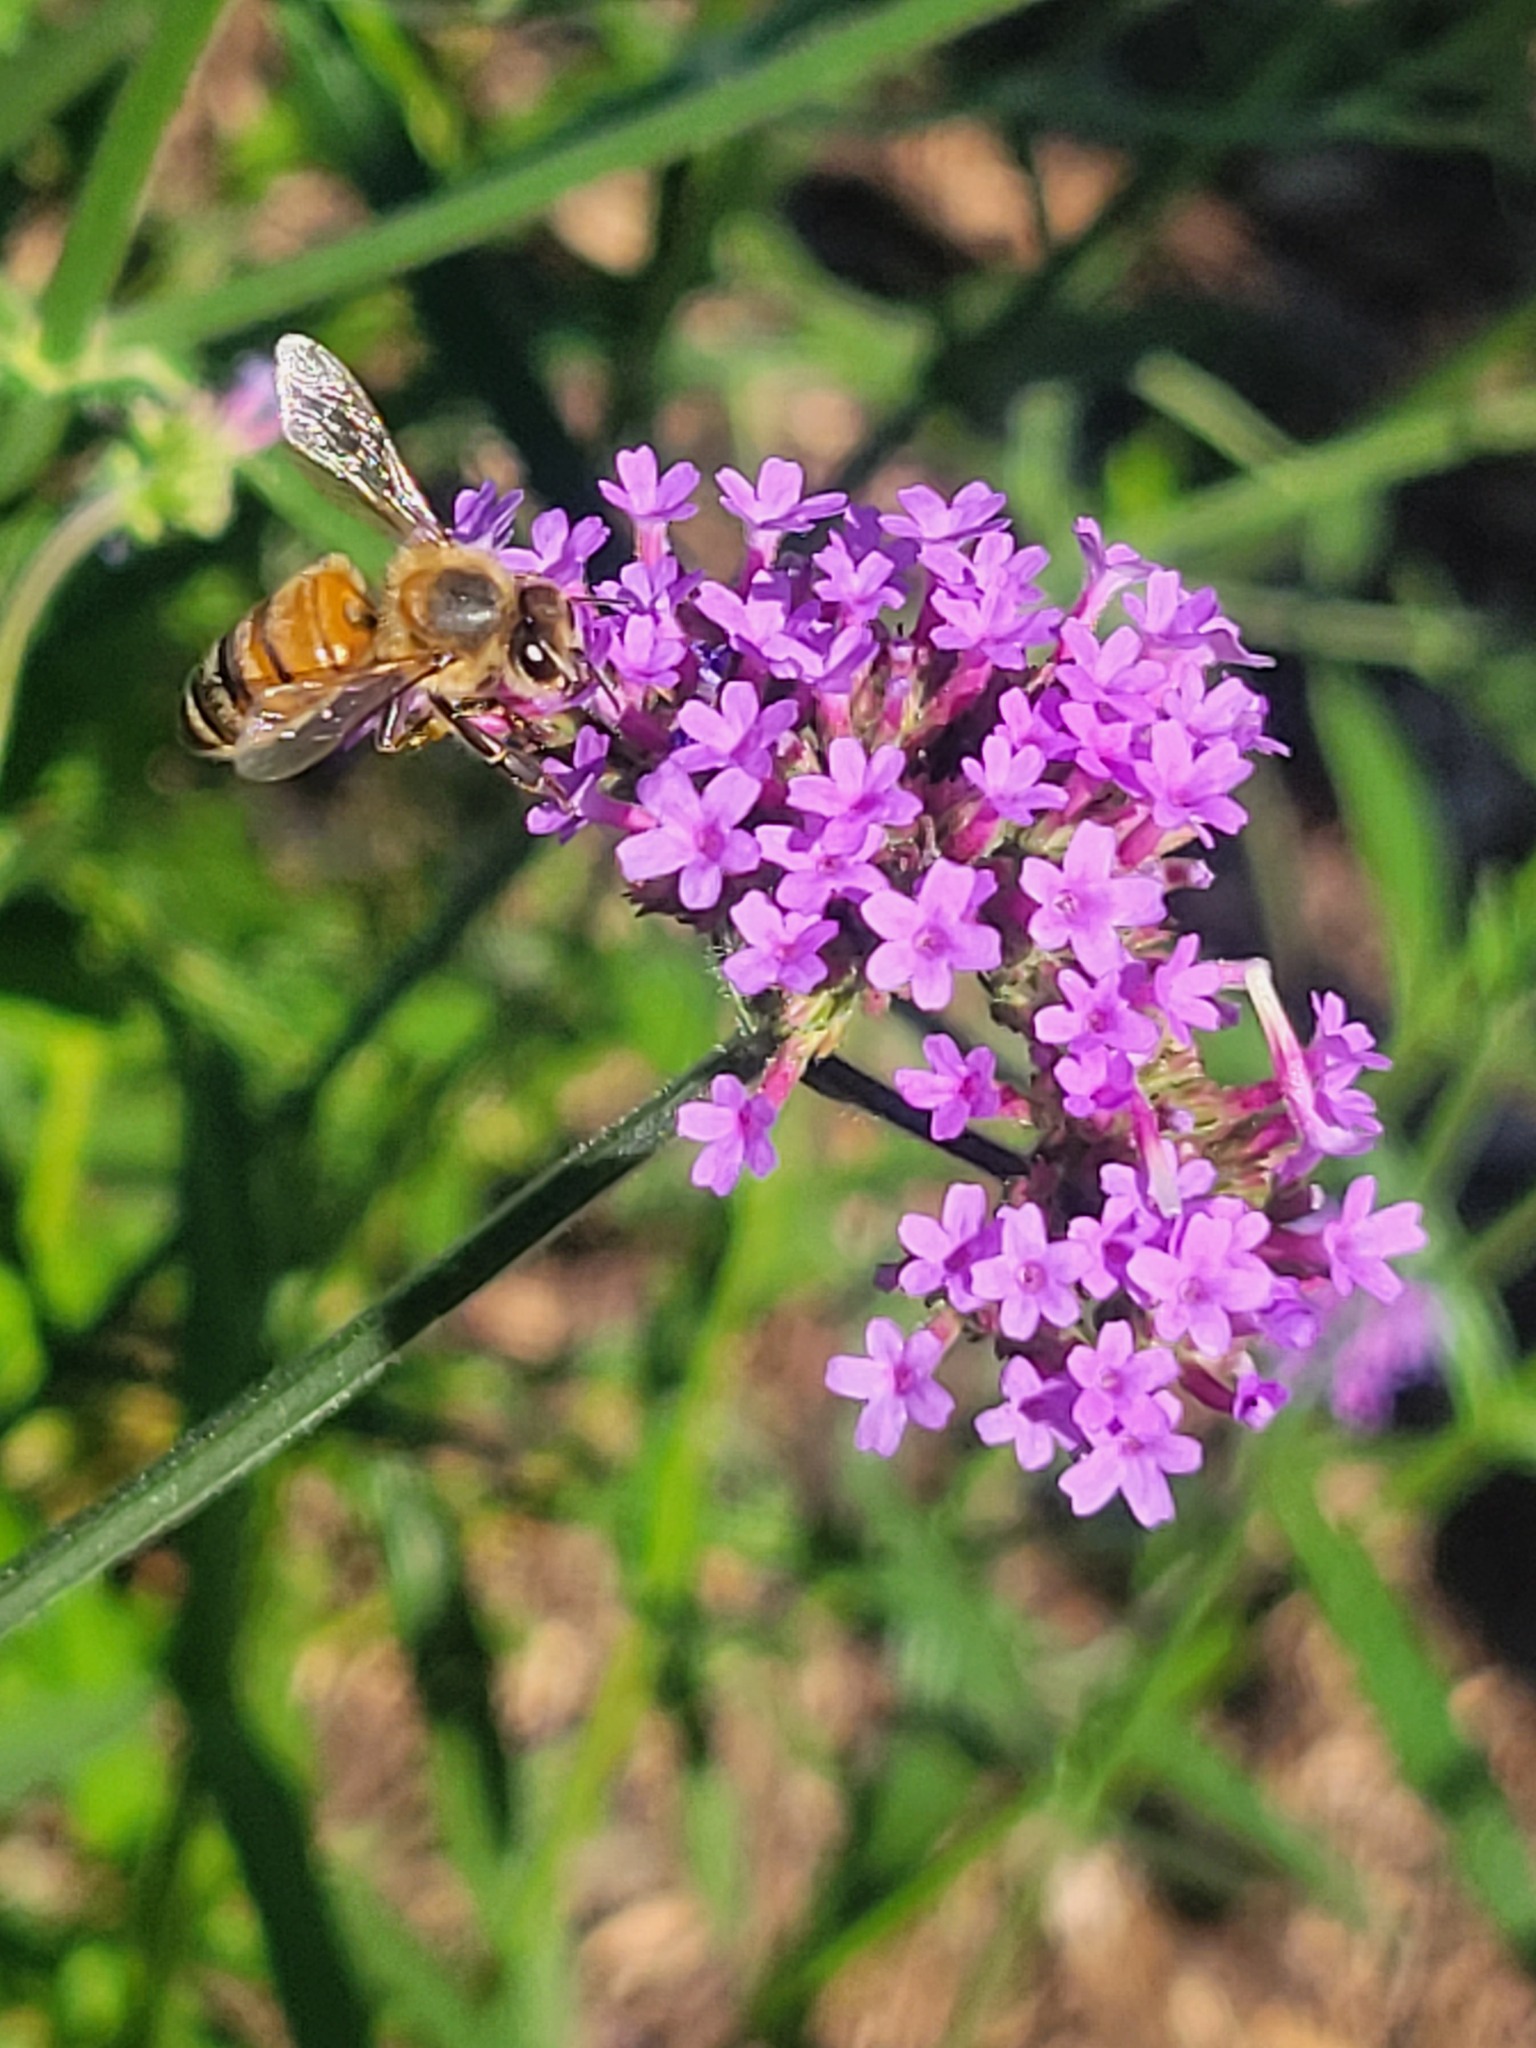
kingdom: Animalia
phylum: Arthropoda
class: Insecta
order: Hymenoptera
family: Apidae
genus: Apis
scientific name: Apis mellifera
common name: Honey bee
